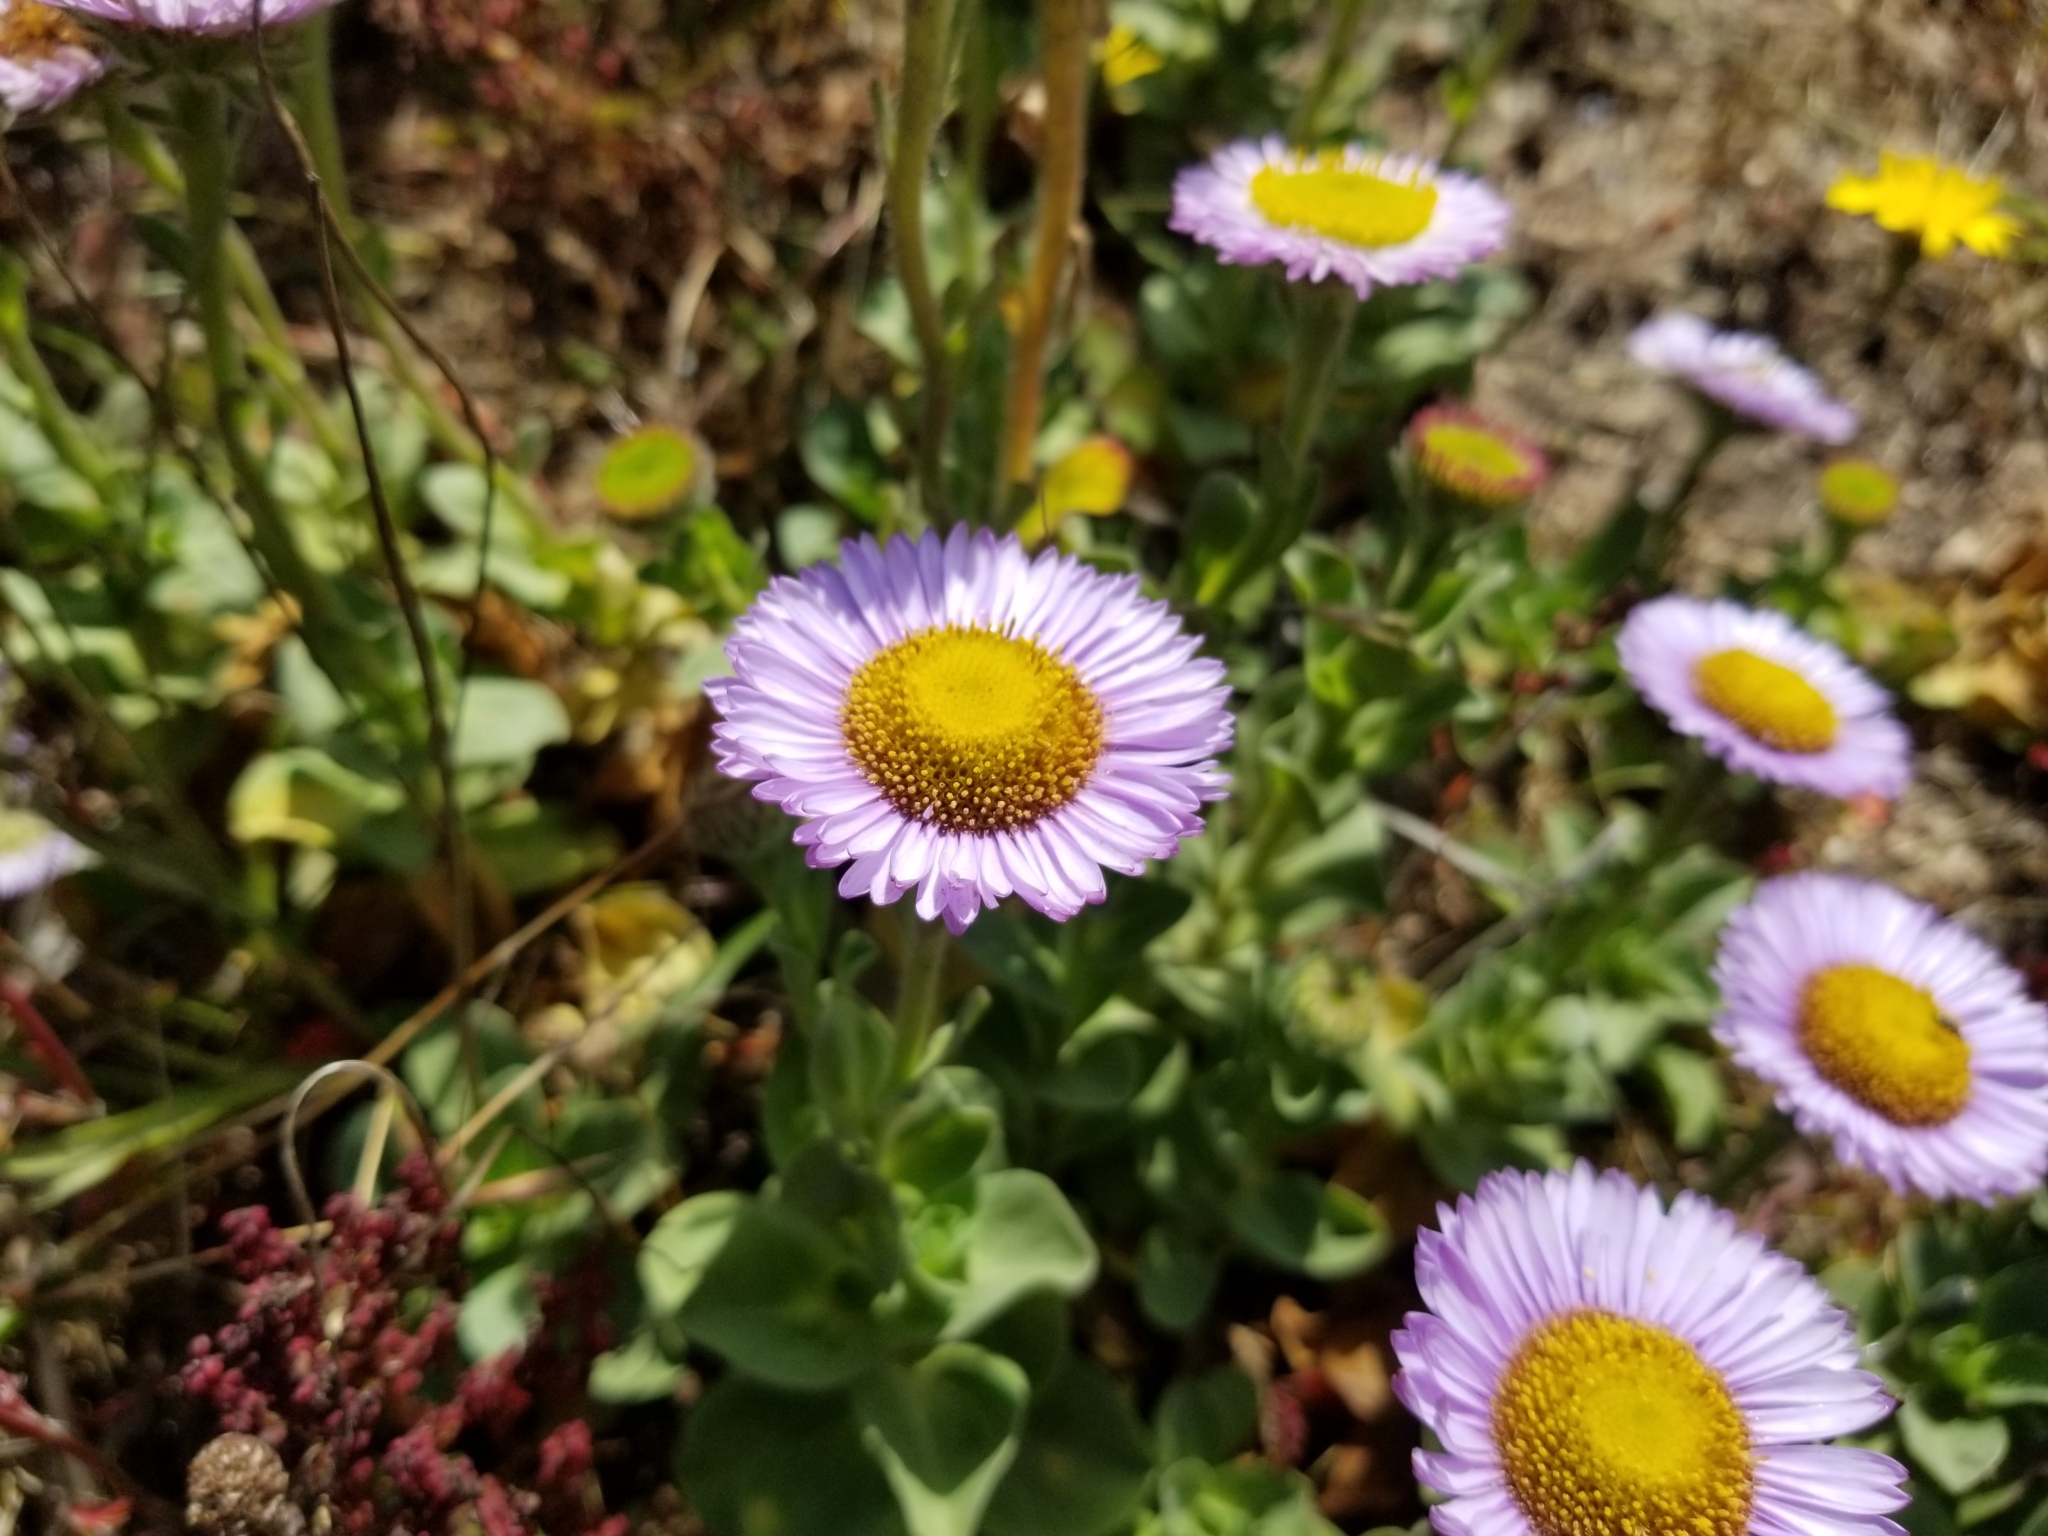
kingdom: Plantae
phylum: Tracheophyta
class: Magnoliopsida
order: Asterales
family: Asteraceae
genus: Erigeron
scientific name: Erigeron glaucus
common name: Seaside daisy
